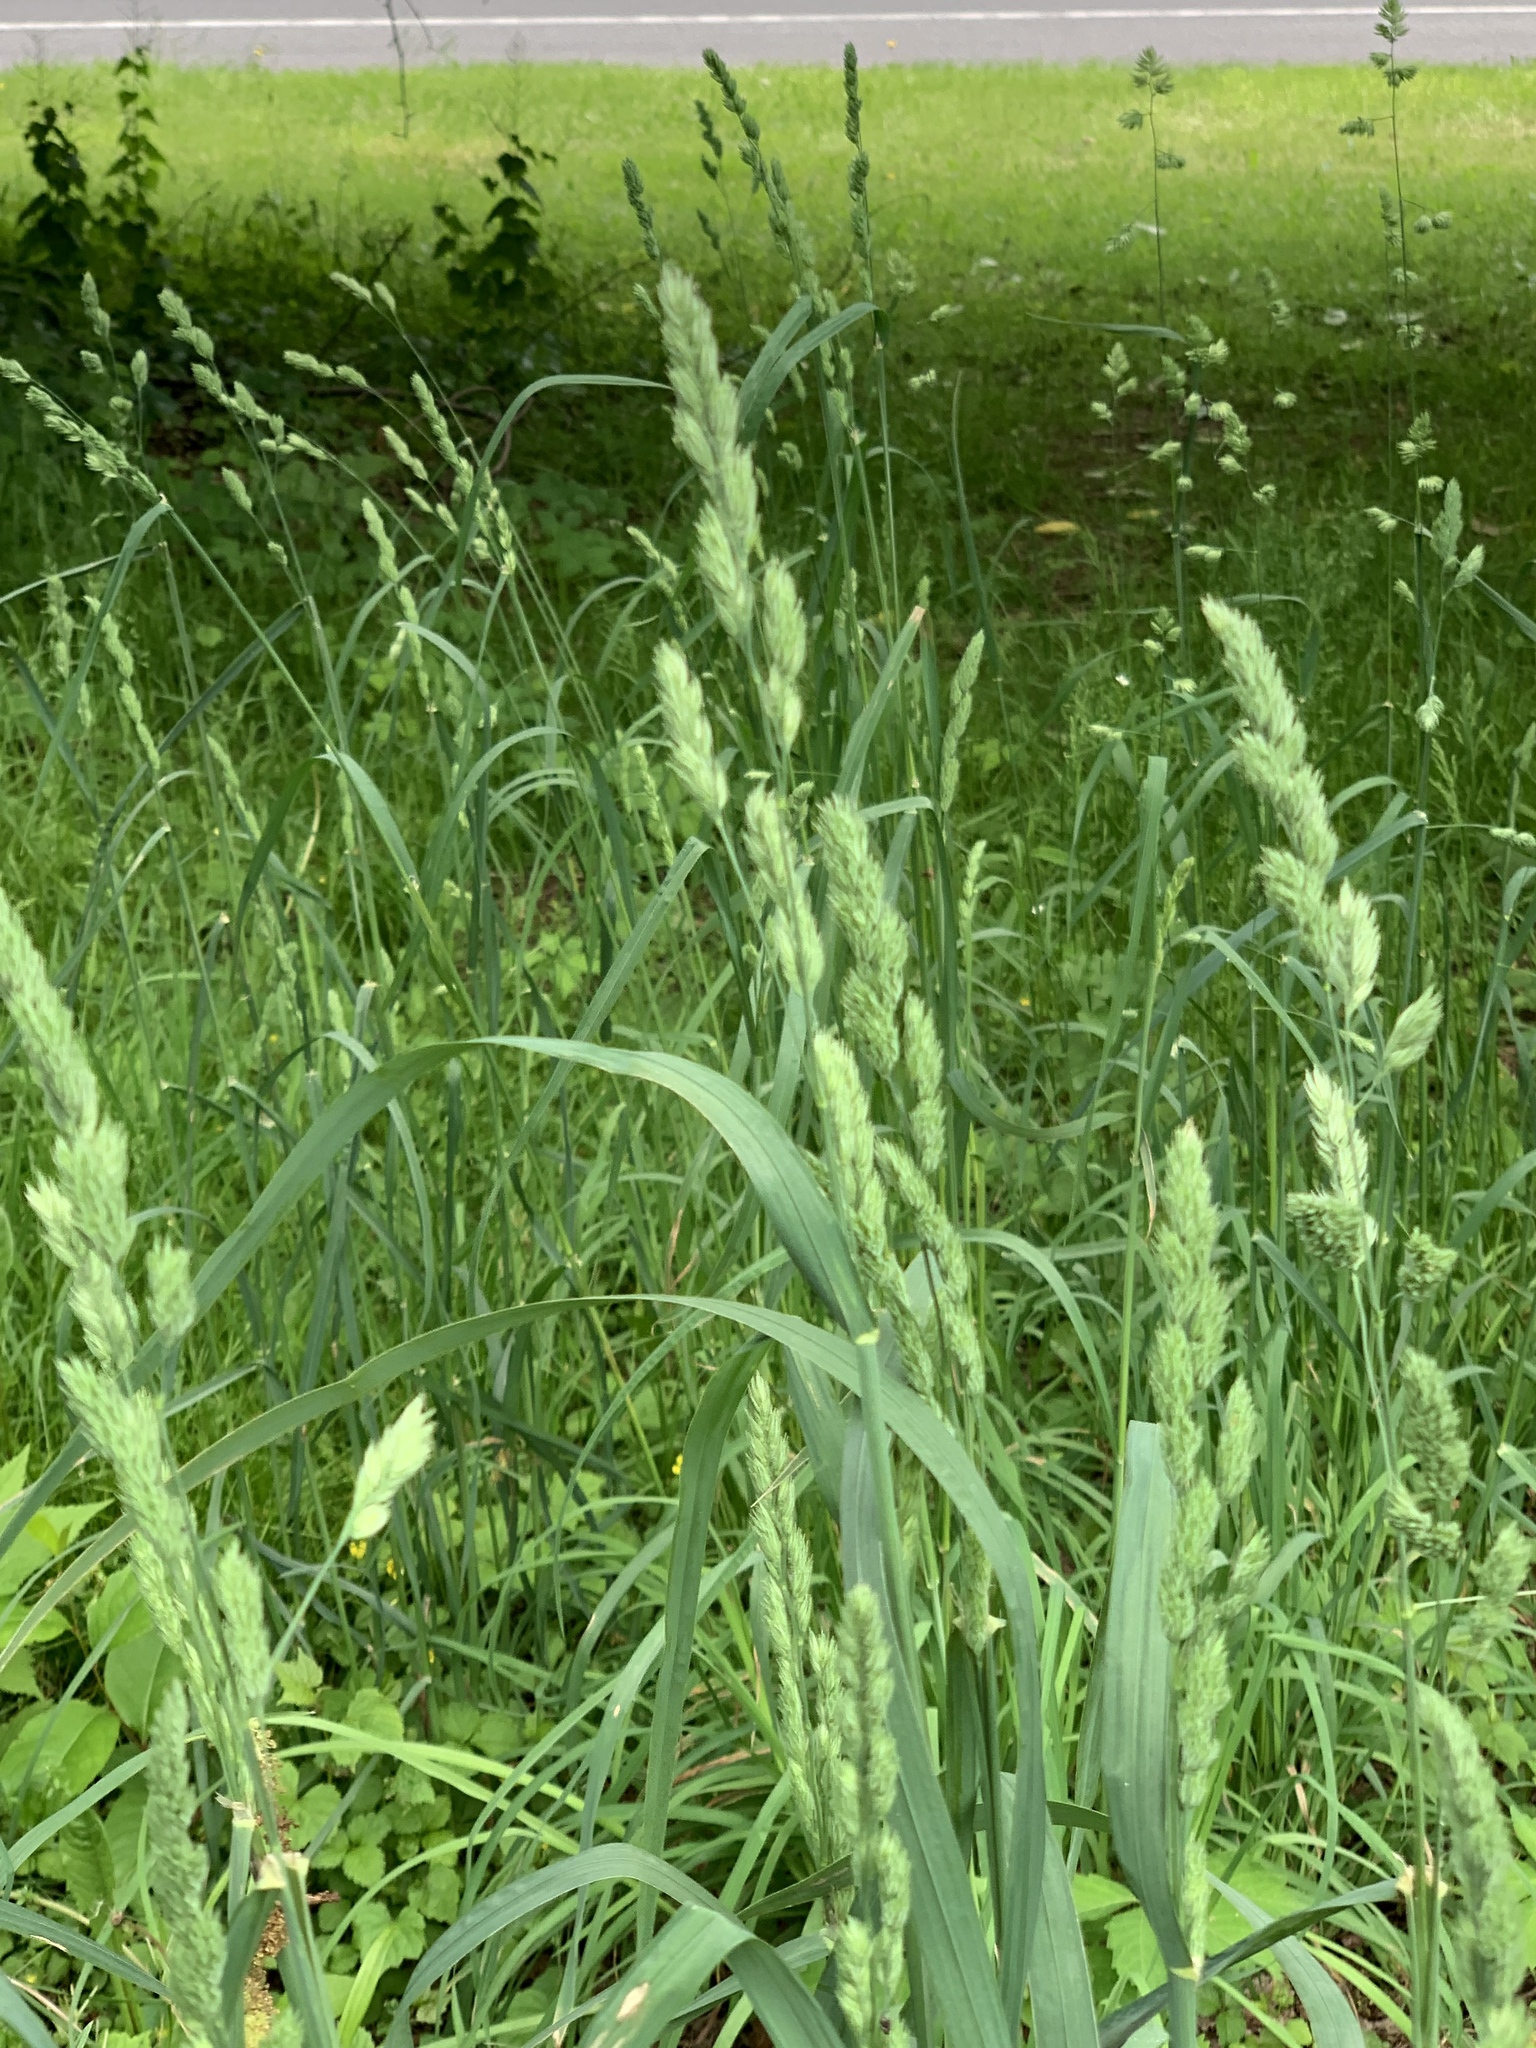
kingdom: Plantae
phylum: Tracheophyta
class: Liliopsida
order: Poales
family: Poaceae
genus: Dactylis
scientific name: Dactylis glomerata
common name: Orchardgrass
